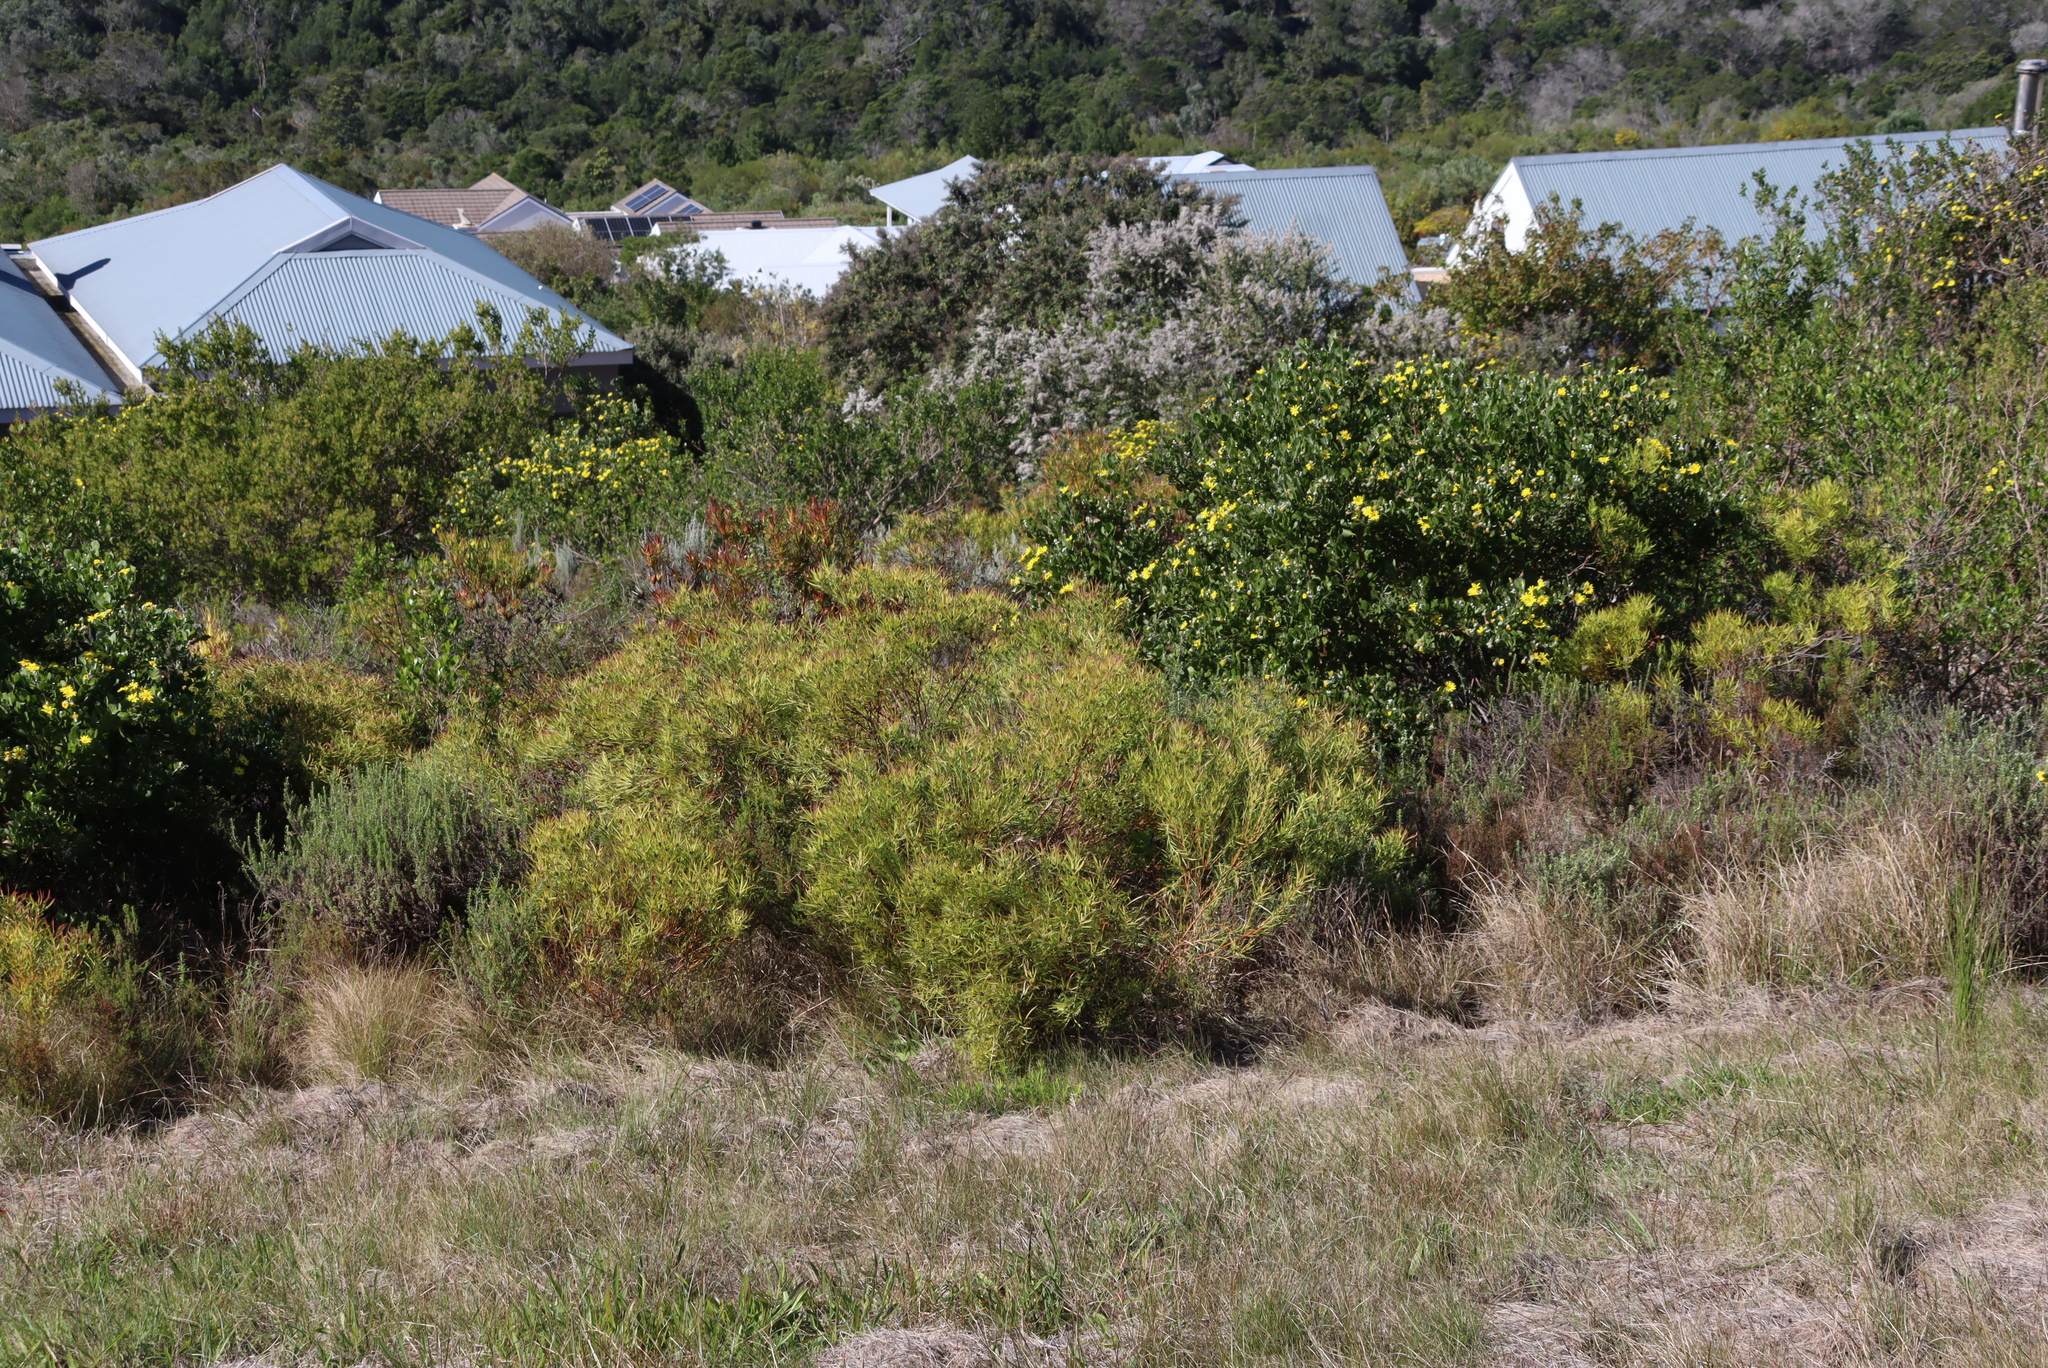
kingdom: Plantae
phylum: Tracheophyta
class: Magnoliopsida
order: Proteales
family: Proteaceae
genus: Leucadendron
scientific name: Leucadendron salignum
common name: Common sunshine conebush
